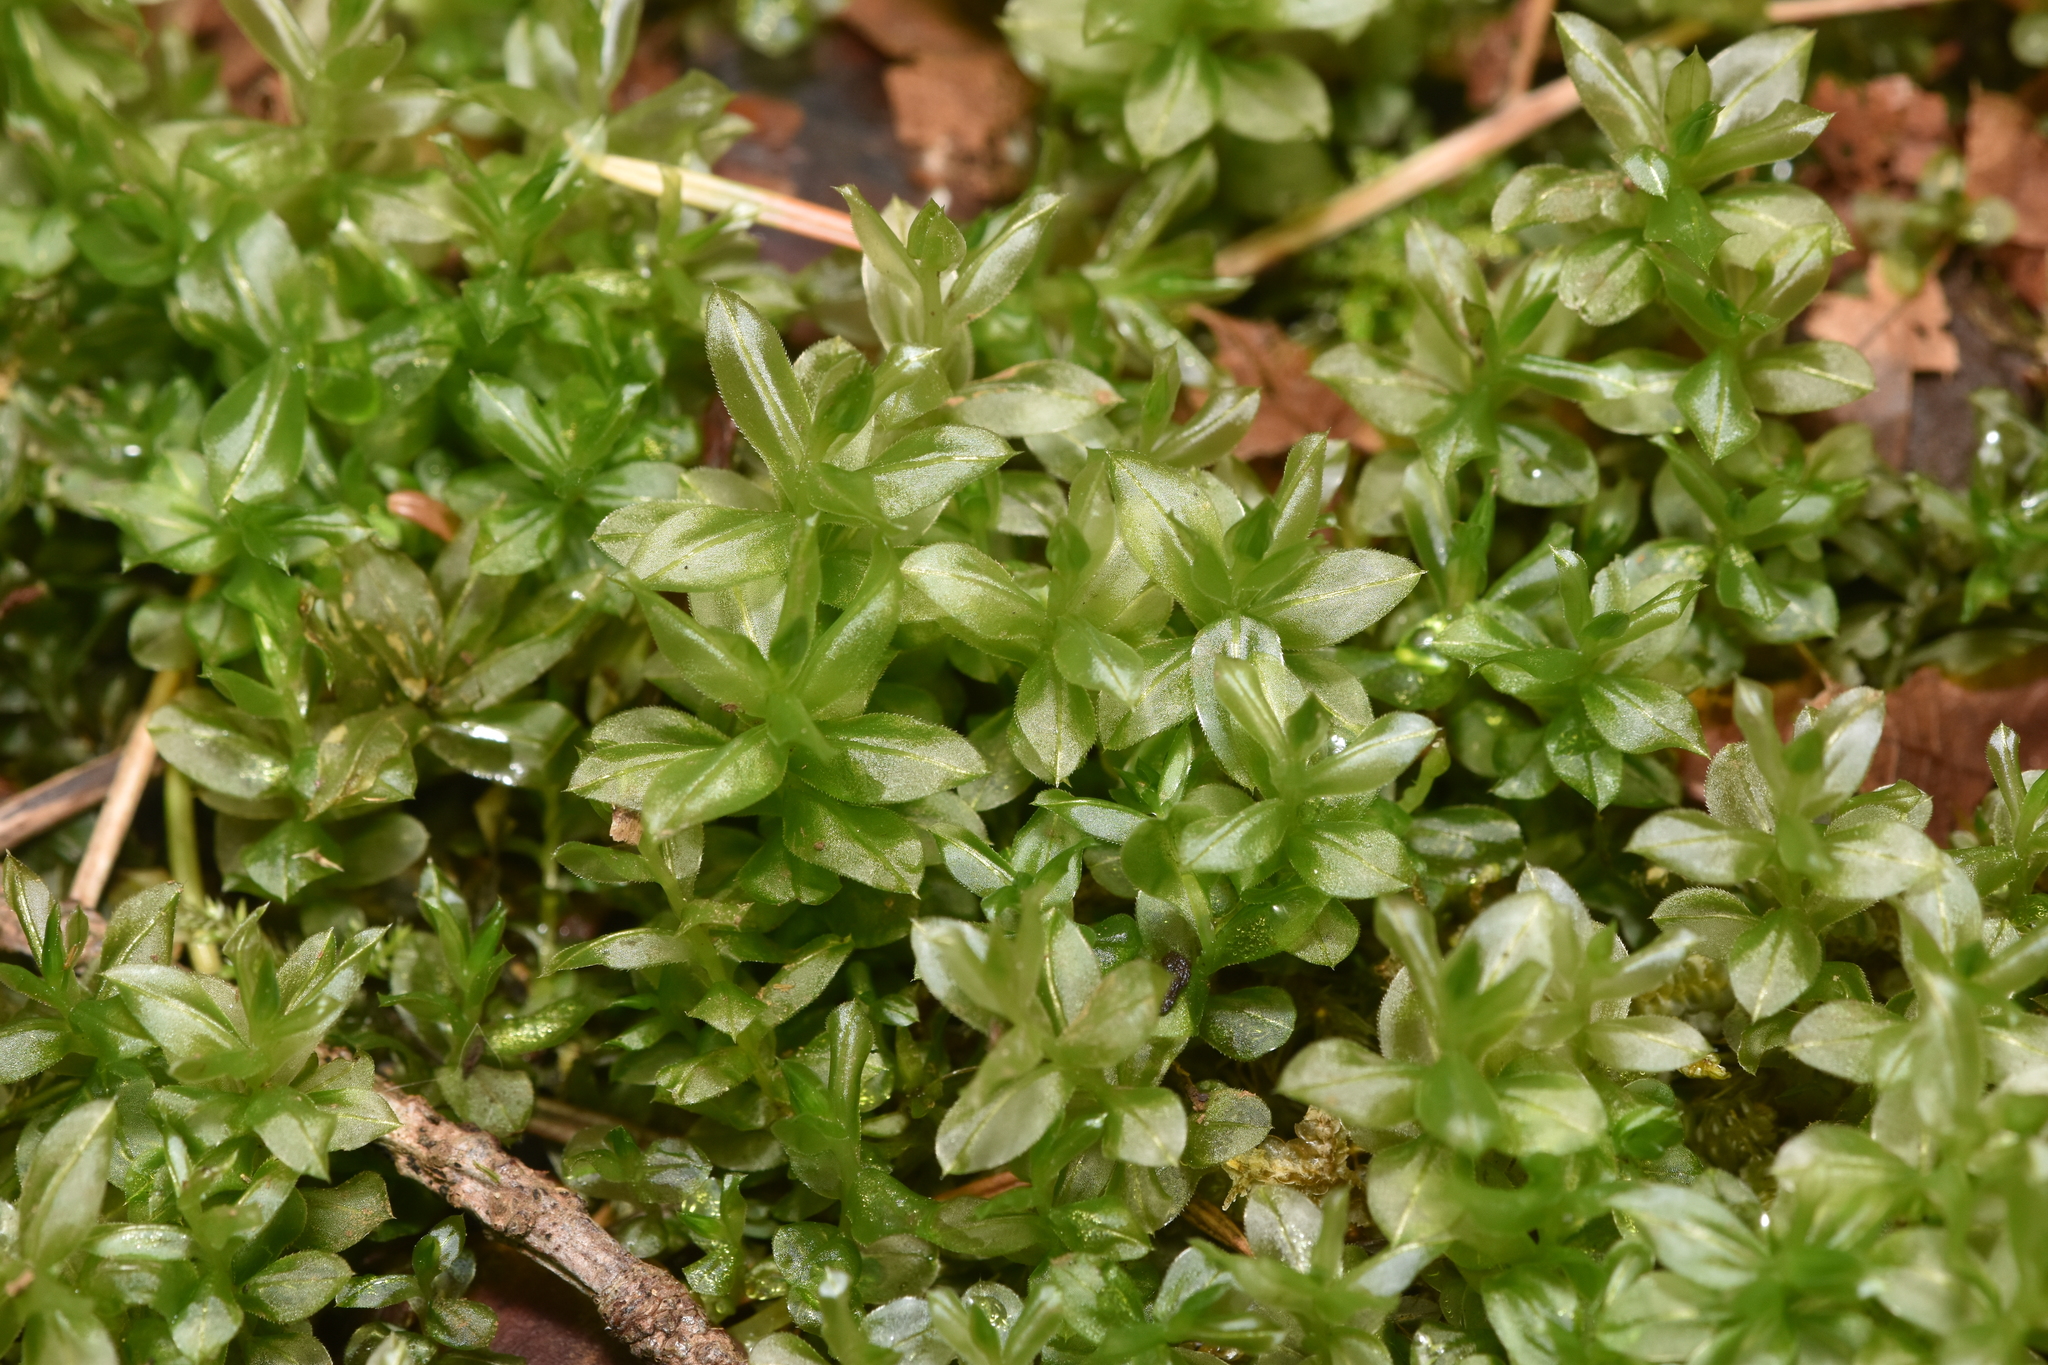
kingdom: Plantae
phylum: Bryophyta
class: Bryopsida
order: Bryales
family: Mniaceae
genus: Plagiomnium
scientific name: Plagiomnium insigne
